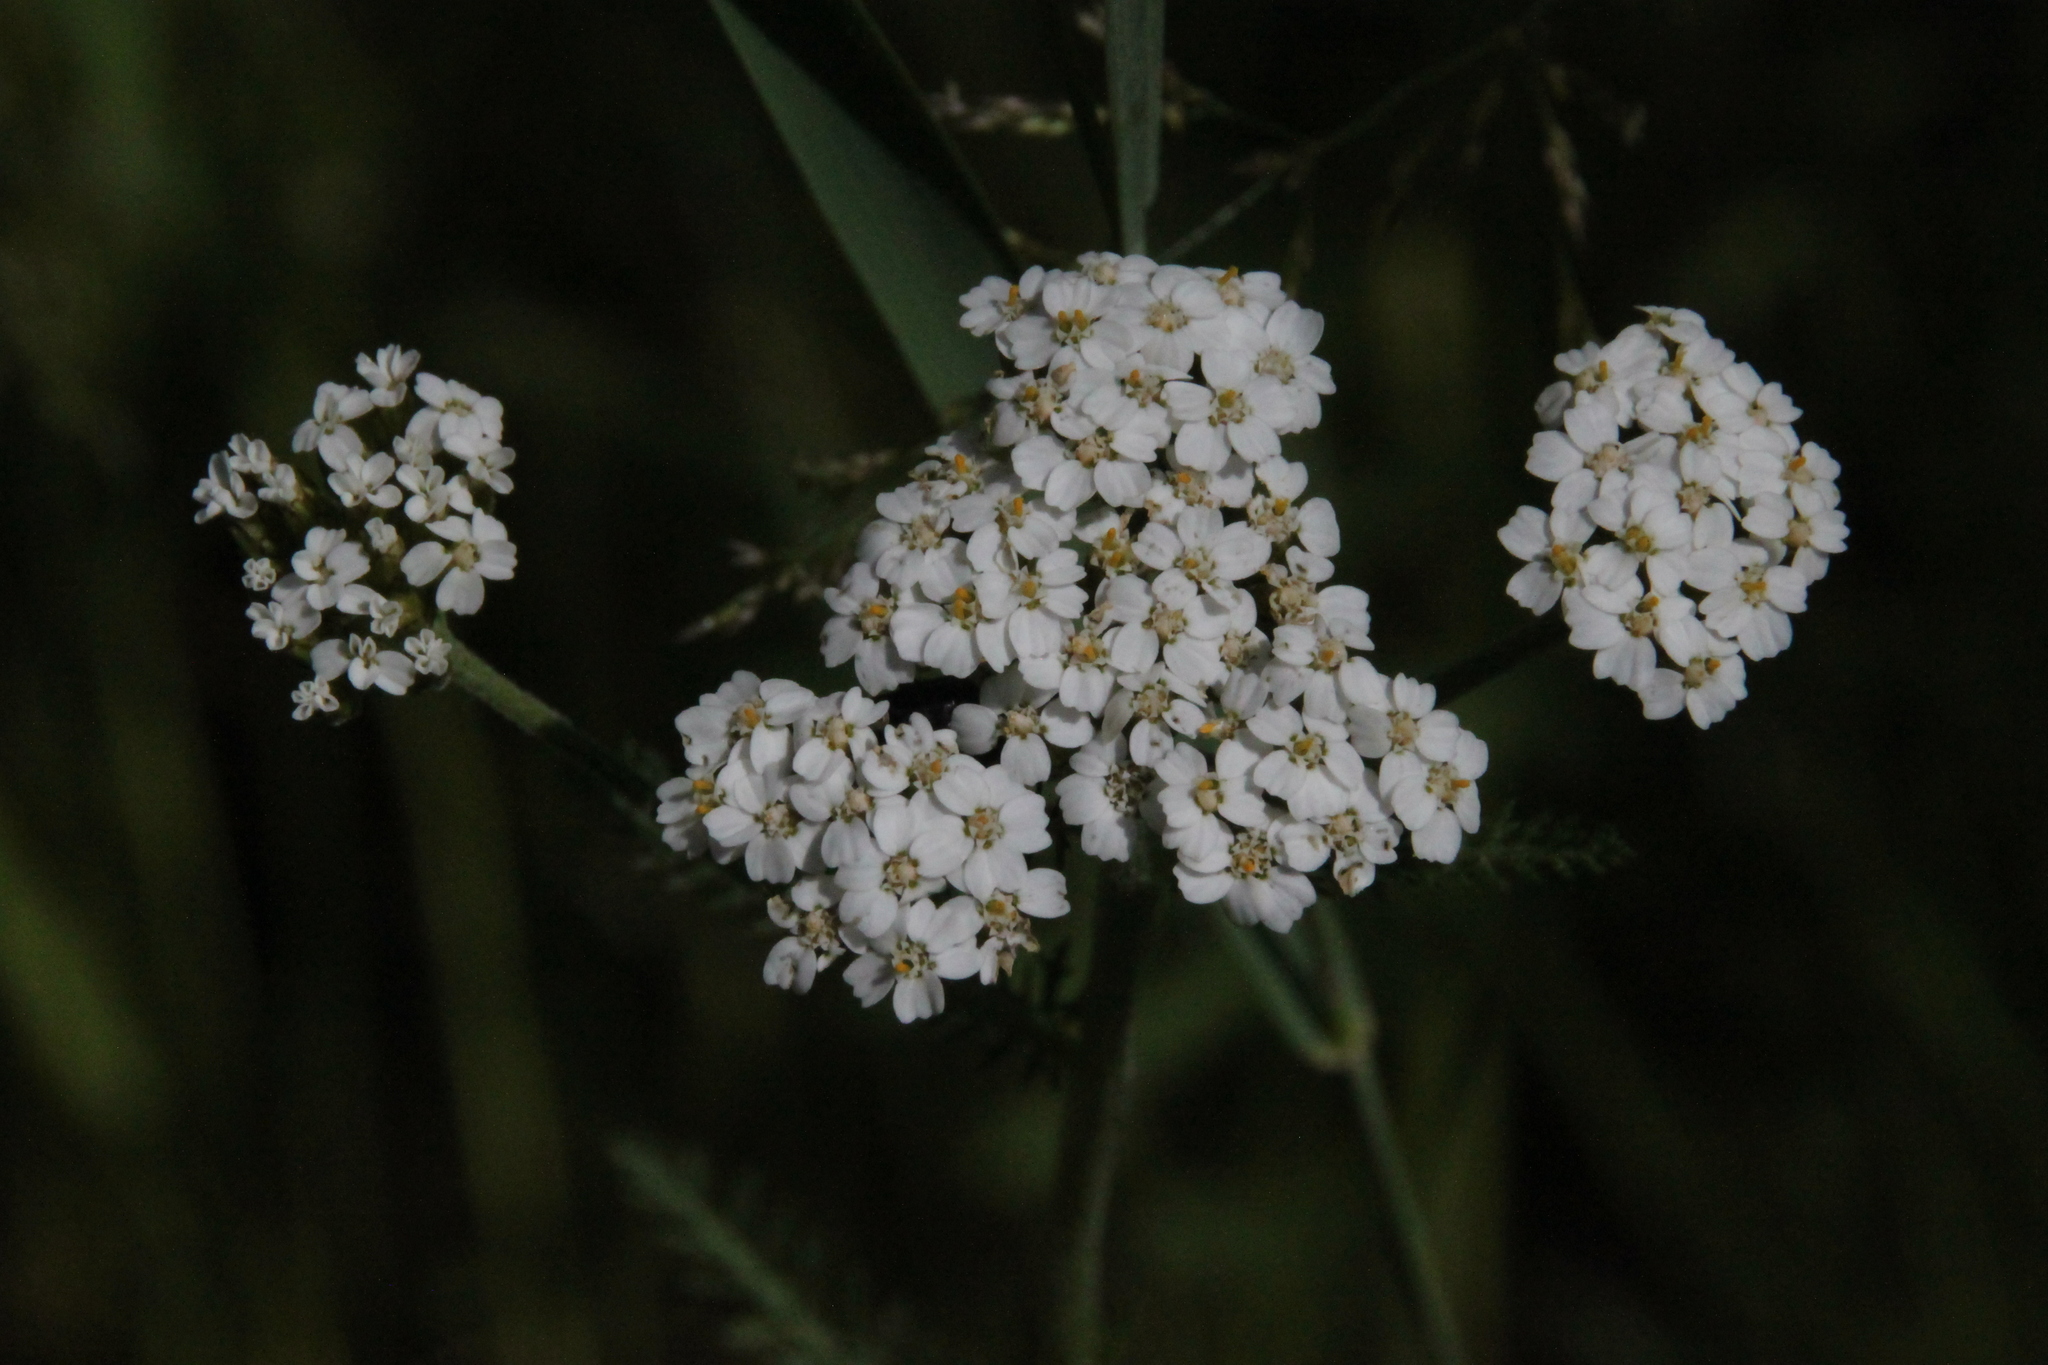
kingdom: Plantae
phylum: Tracheophyta
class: Magnoliopsida
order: Asterales
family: Asteraceae
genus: Achillea
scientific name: Achillea millefolium
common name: Yarrow
